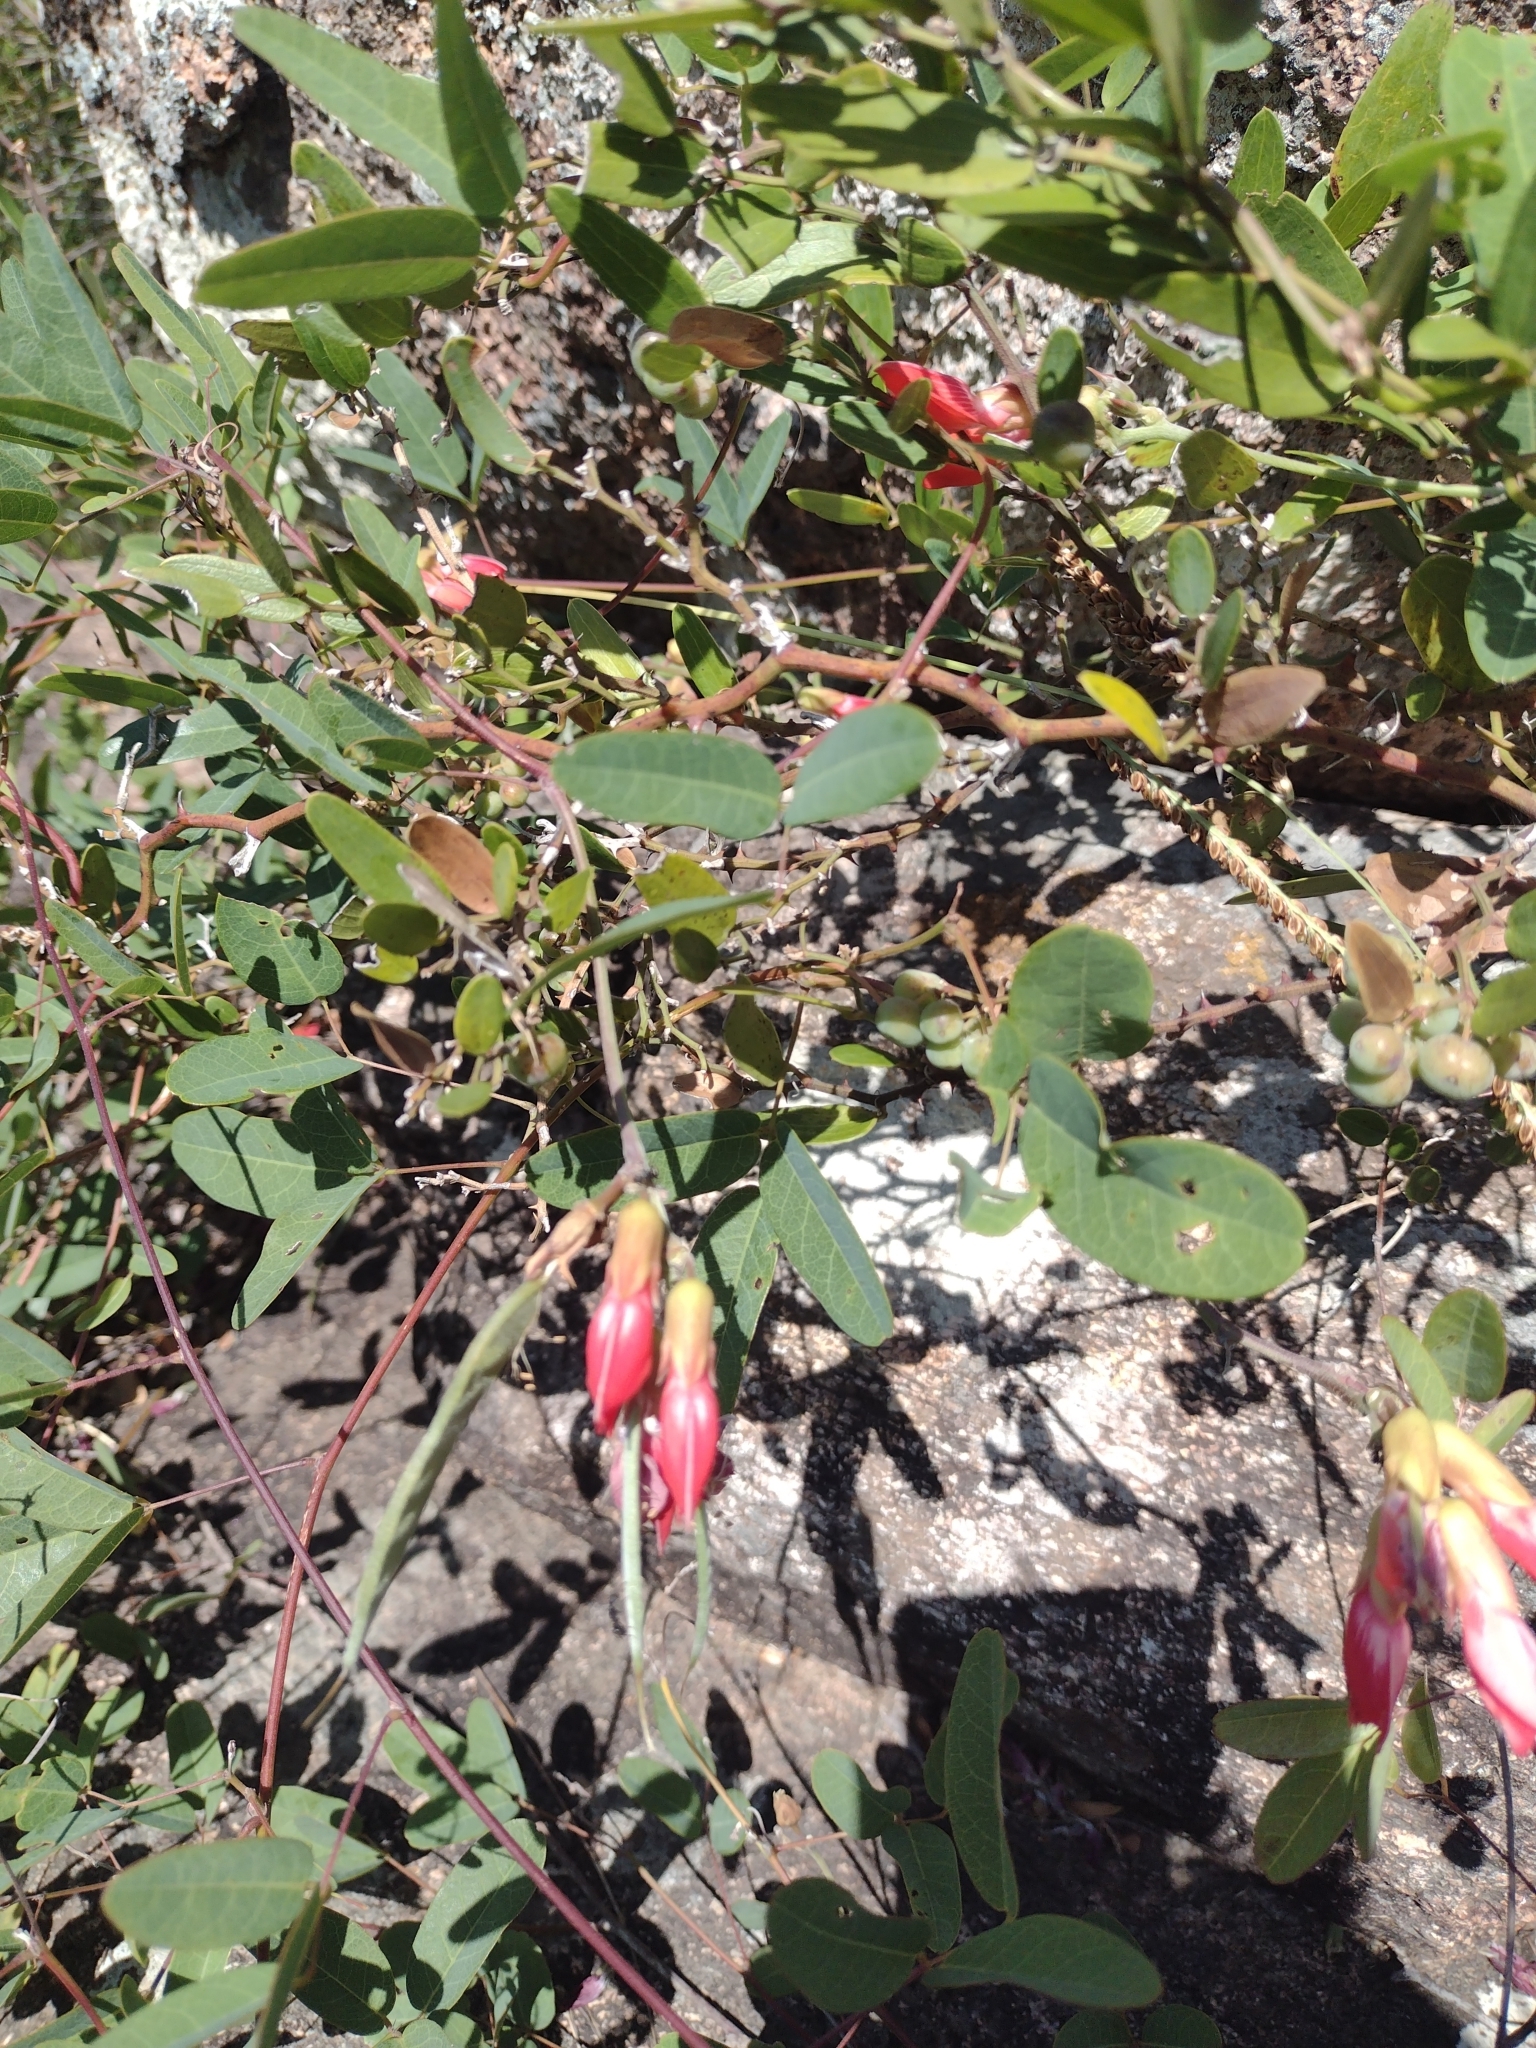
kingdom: Plantae
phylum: Tracheophyta
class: Magnoliopsida
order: Fabales
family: Fabaceae
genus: Camptosema
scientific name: Camptosema rubicundum
